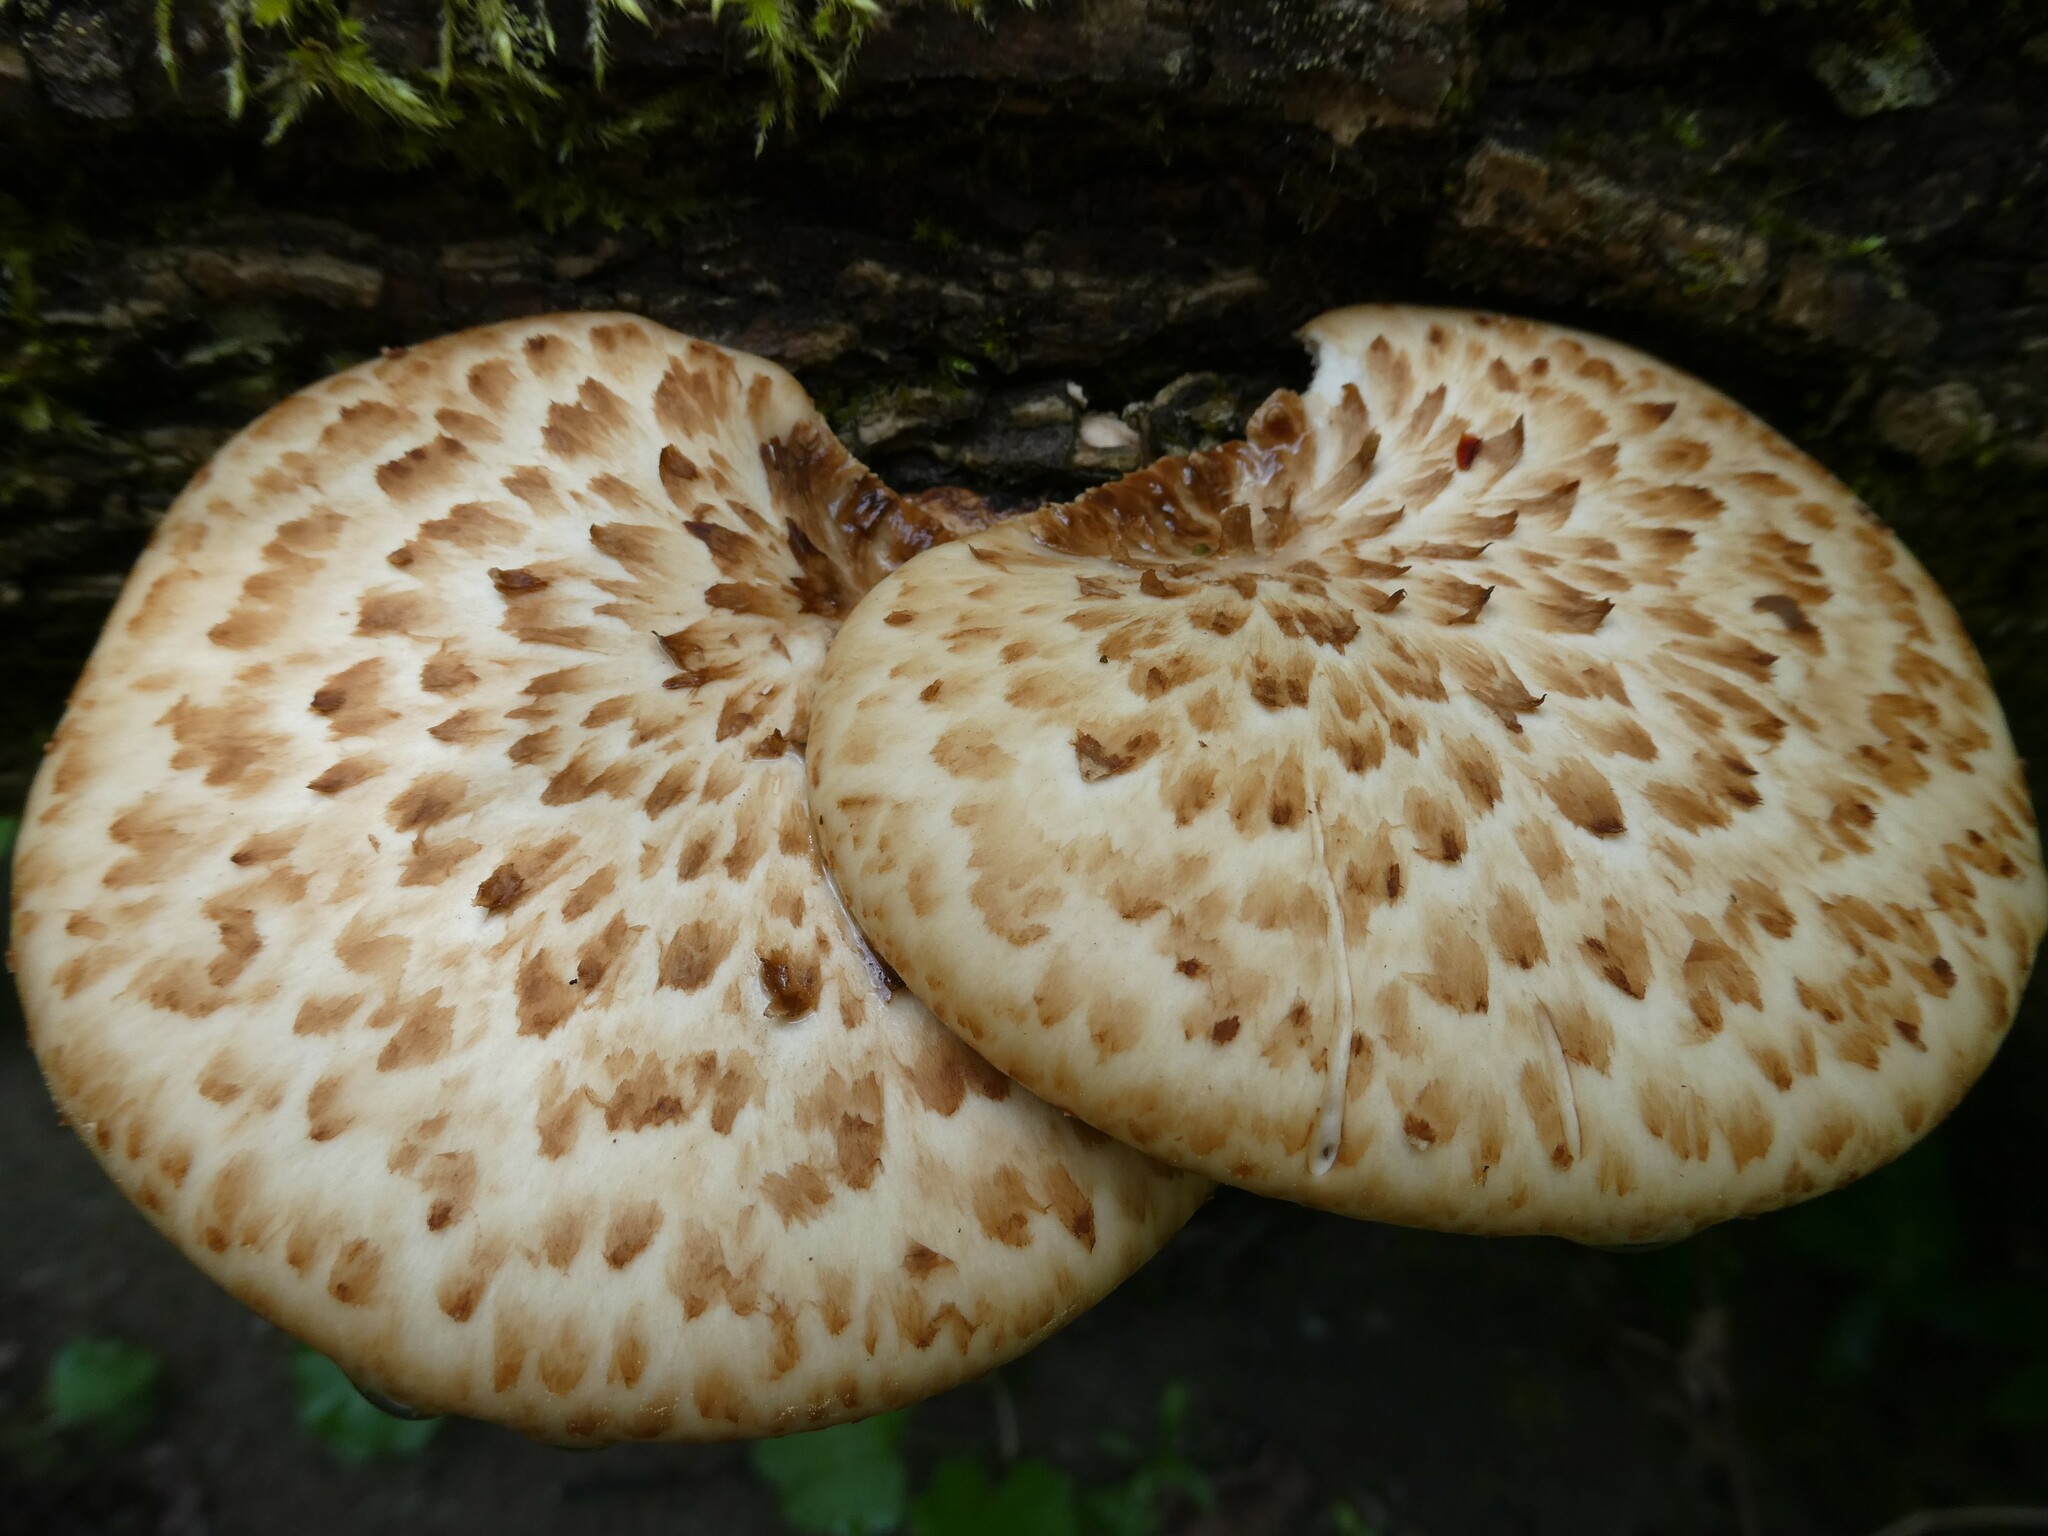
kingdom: Fungi
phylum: Basidiomycota
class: Agaricomycetes
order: Polyporales
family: Polyporaceae
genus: Cerioporus
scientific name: Cerioporus squamosus
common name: Dryad's saddle
